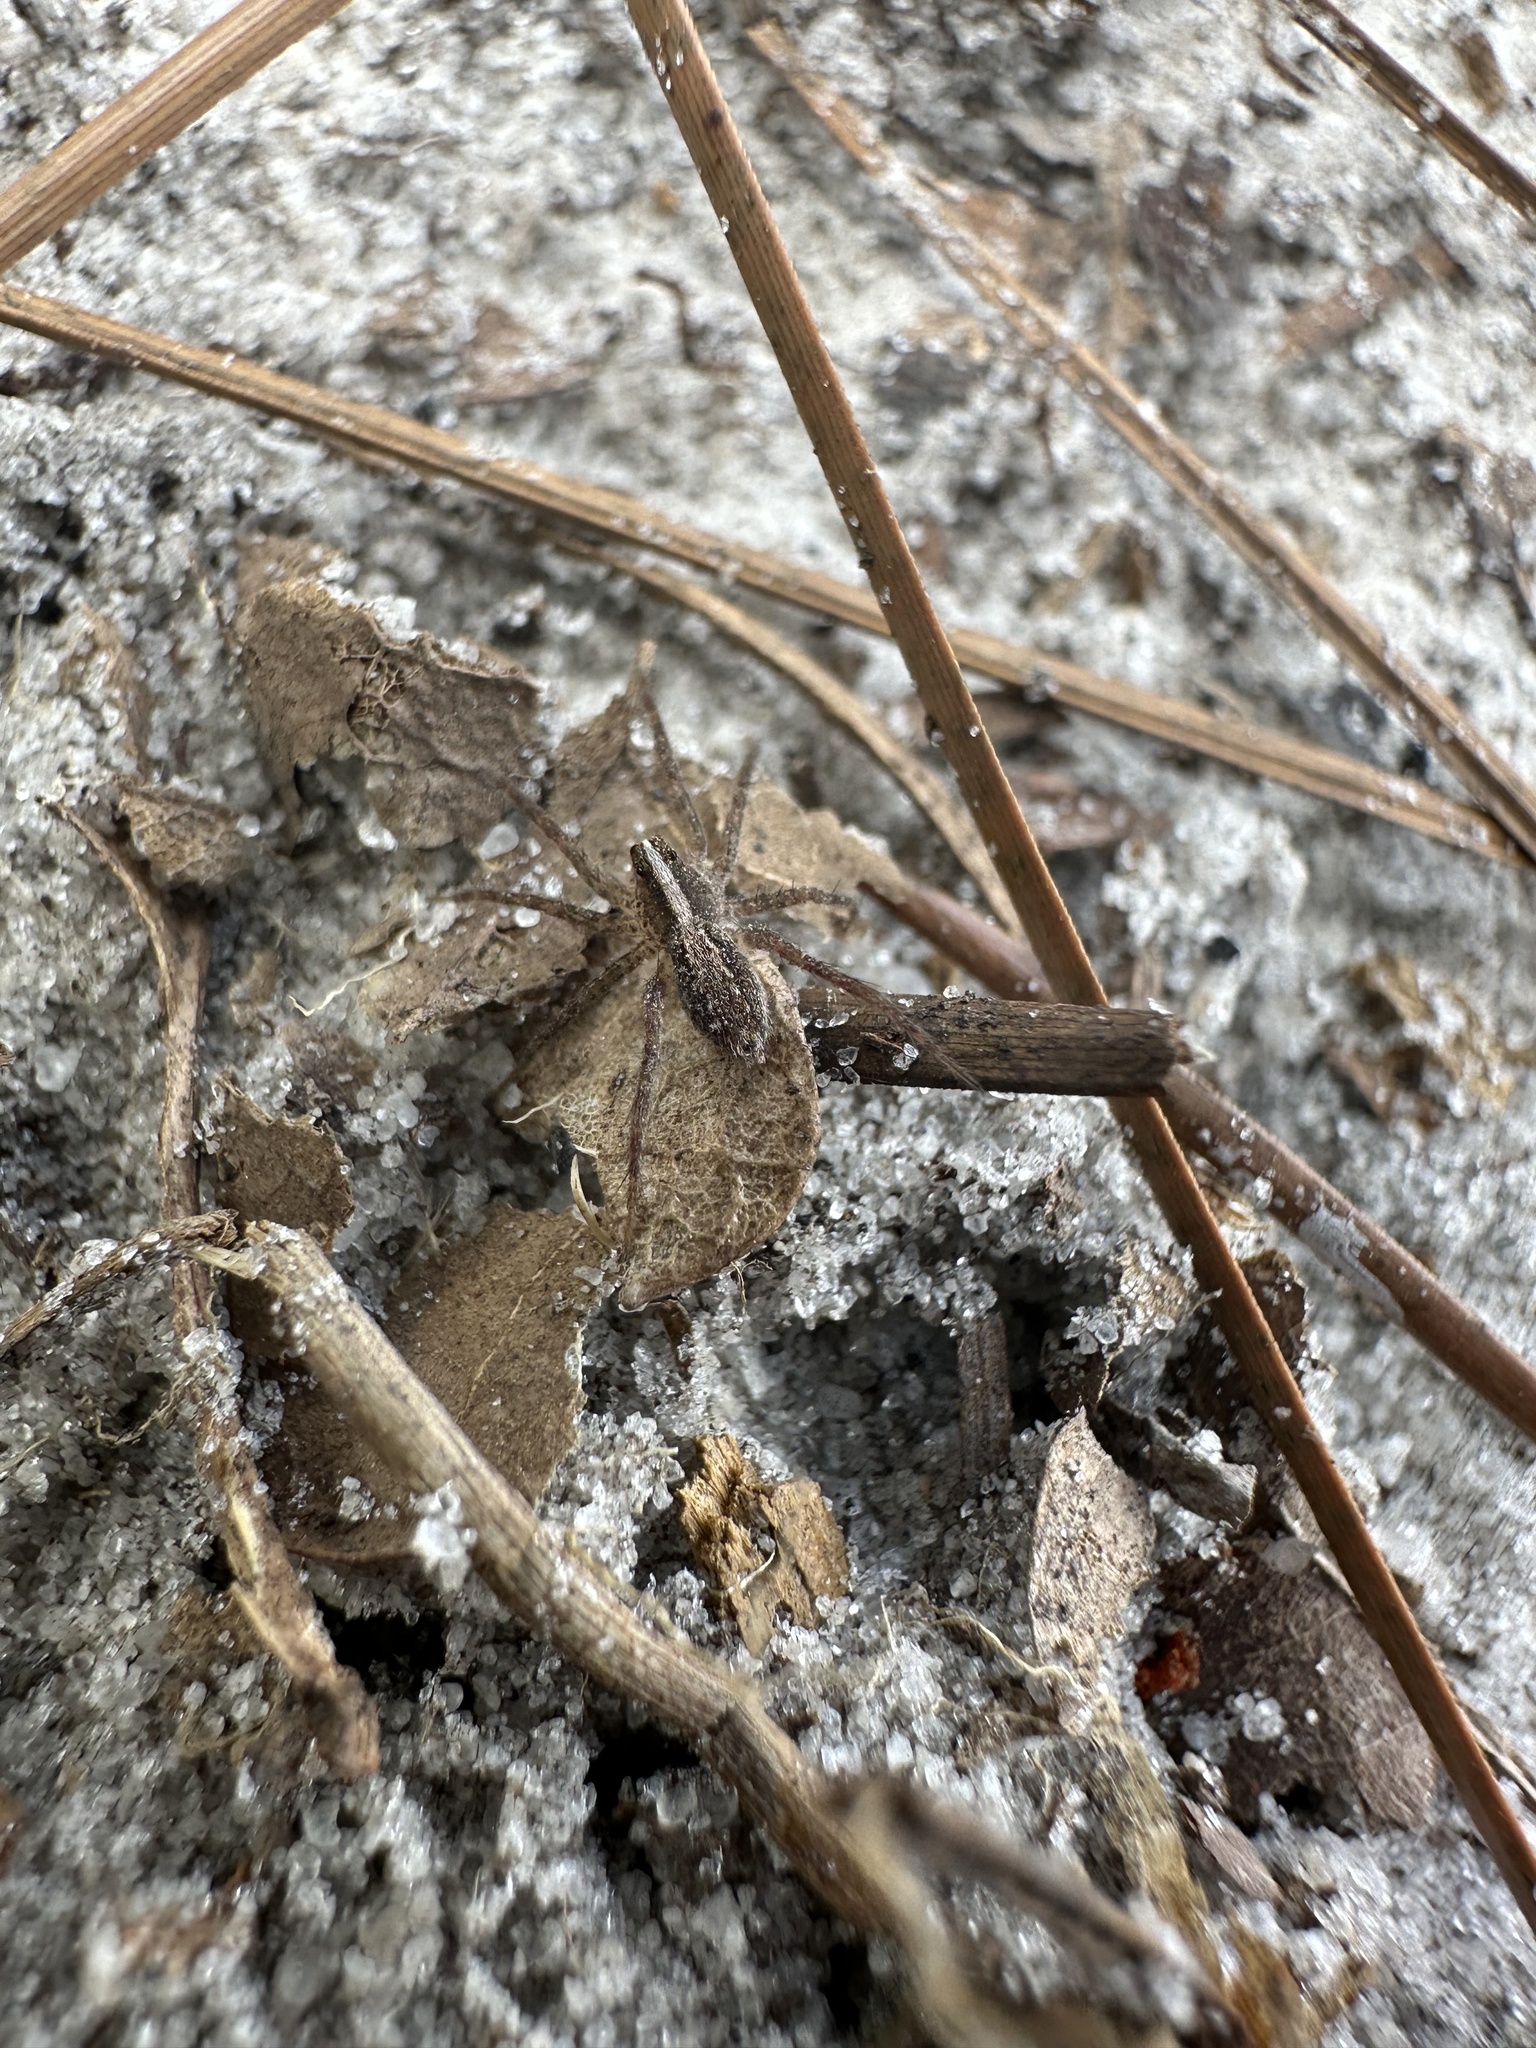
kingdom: Animalia
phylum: Arthropoda
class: Arachnida
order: Araneae
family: Lycosidae
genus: Rabidosa
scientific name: Rabidosa hentzi
